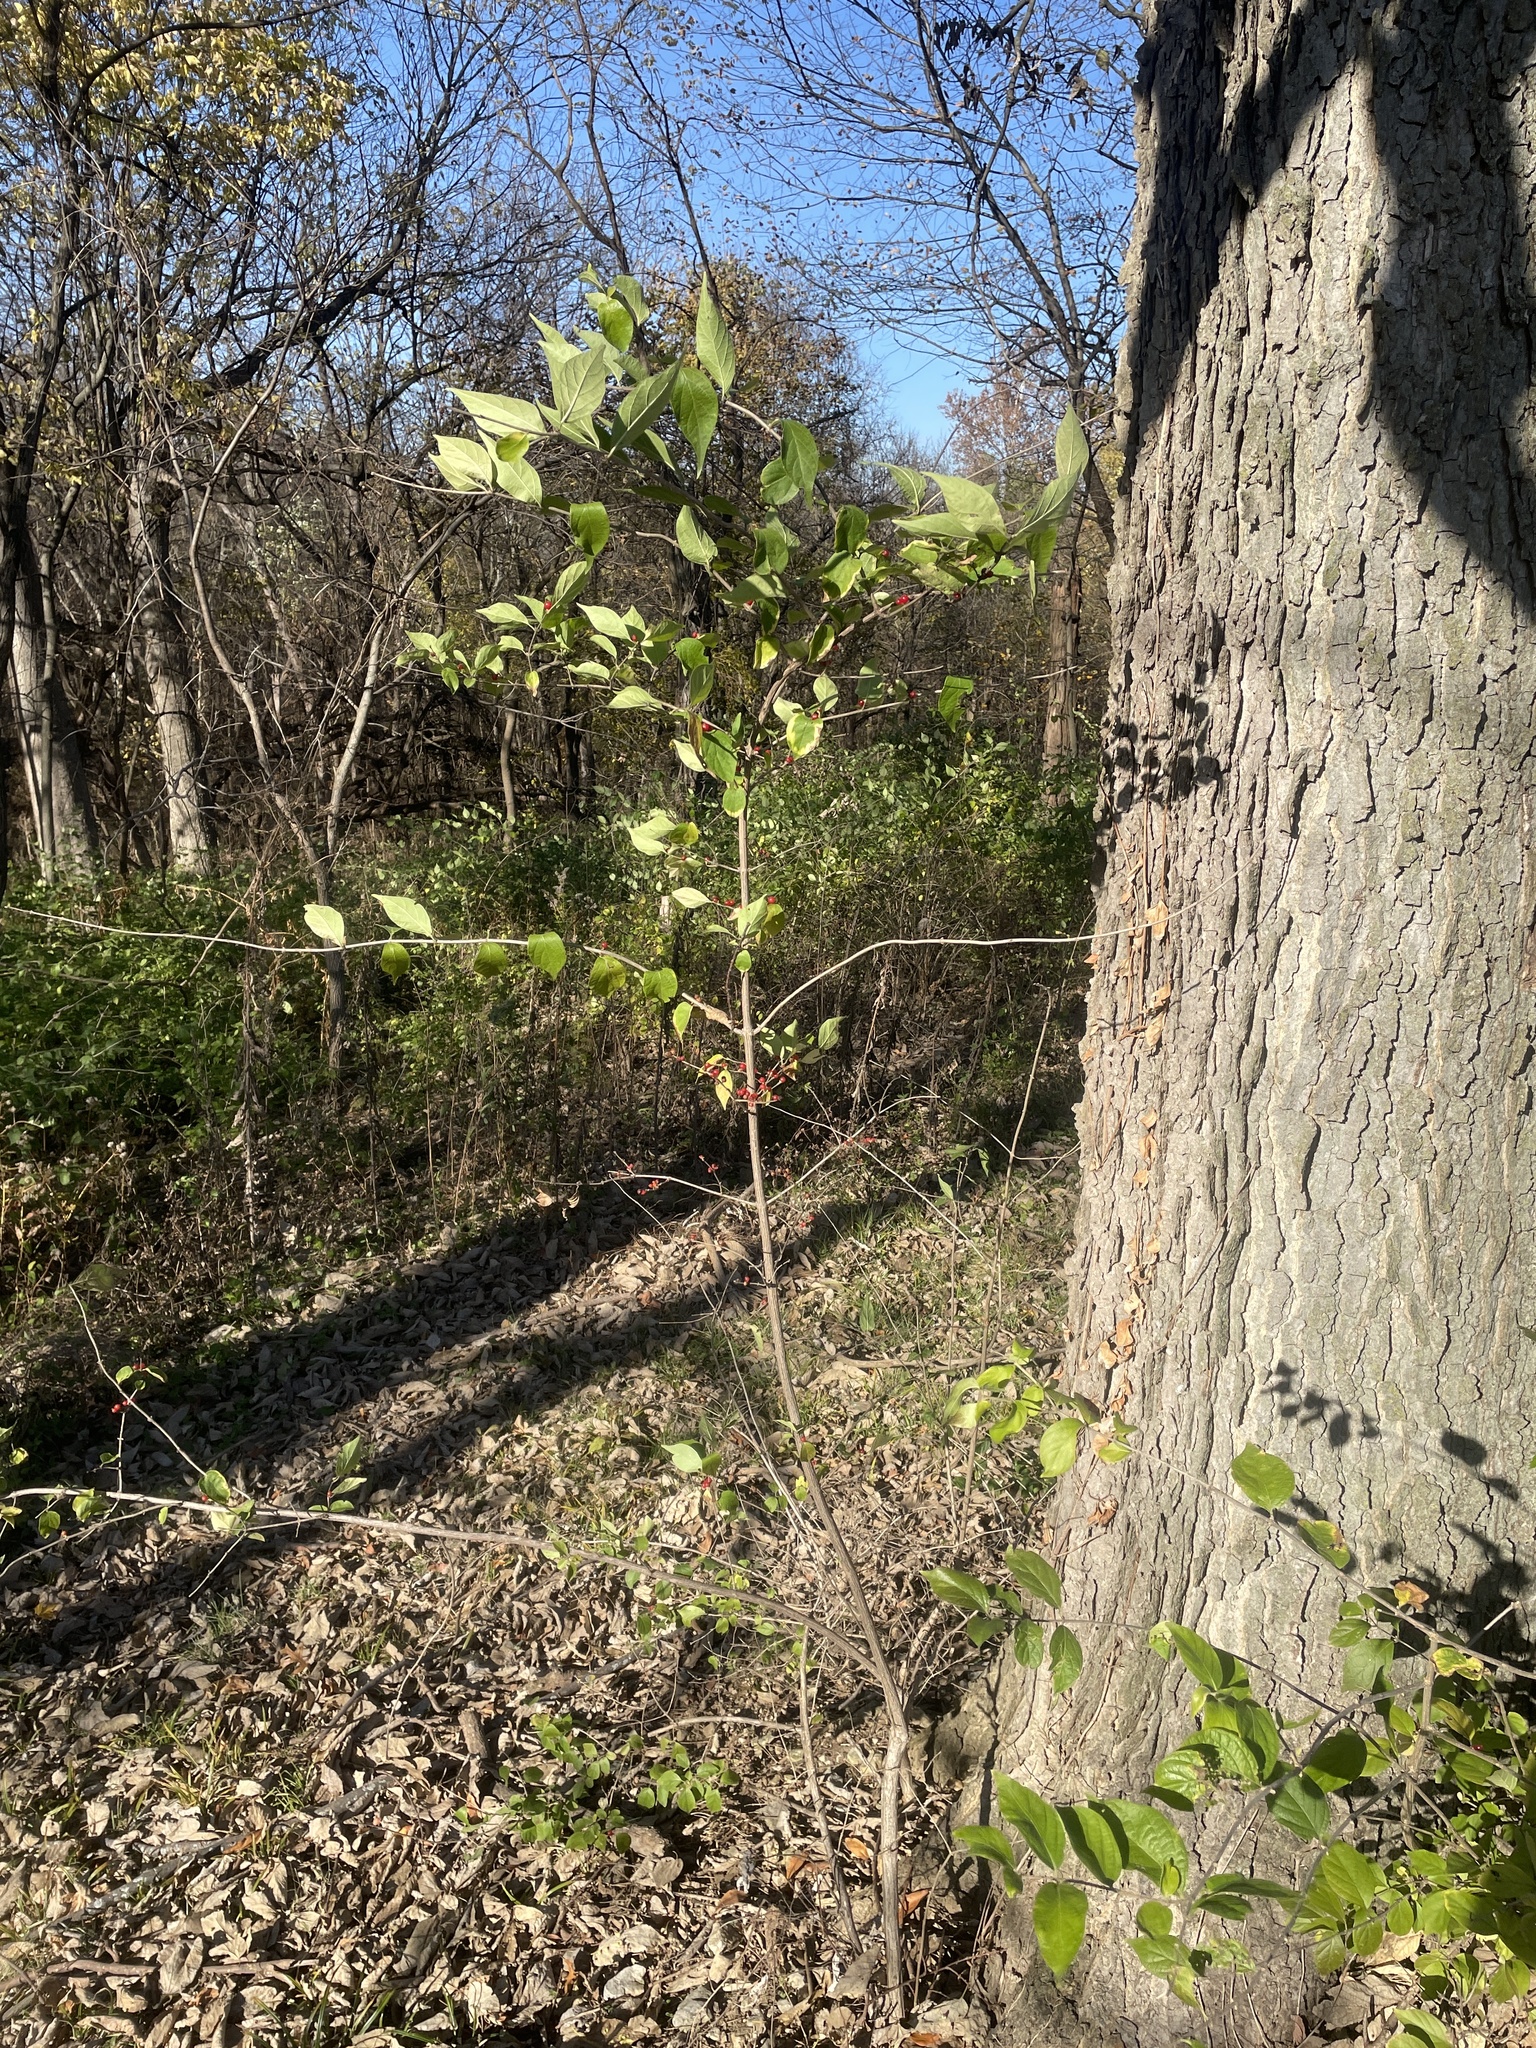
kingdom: Plantae
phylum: Tracheophyta
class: Magnoliopsida
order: Dipsacales
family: Caprifoliaceae
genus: Lonicera
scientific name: Lonicera maackii
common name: Amur honeysuckle
